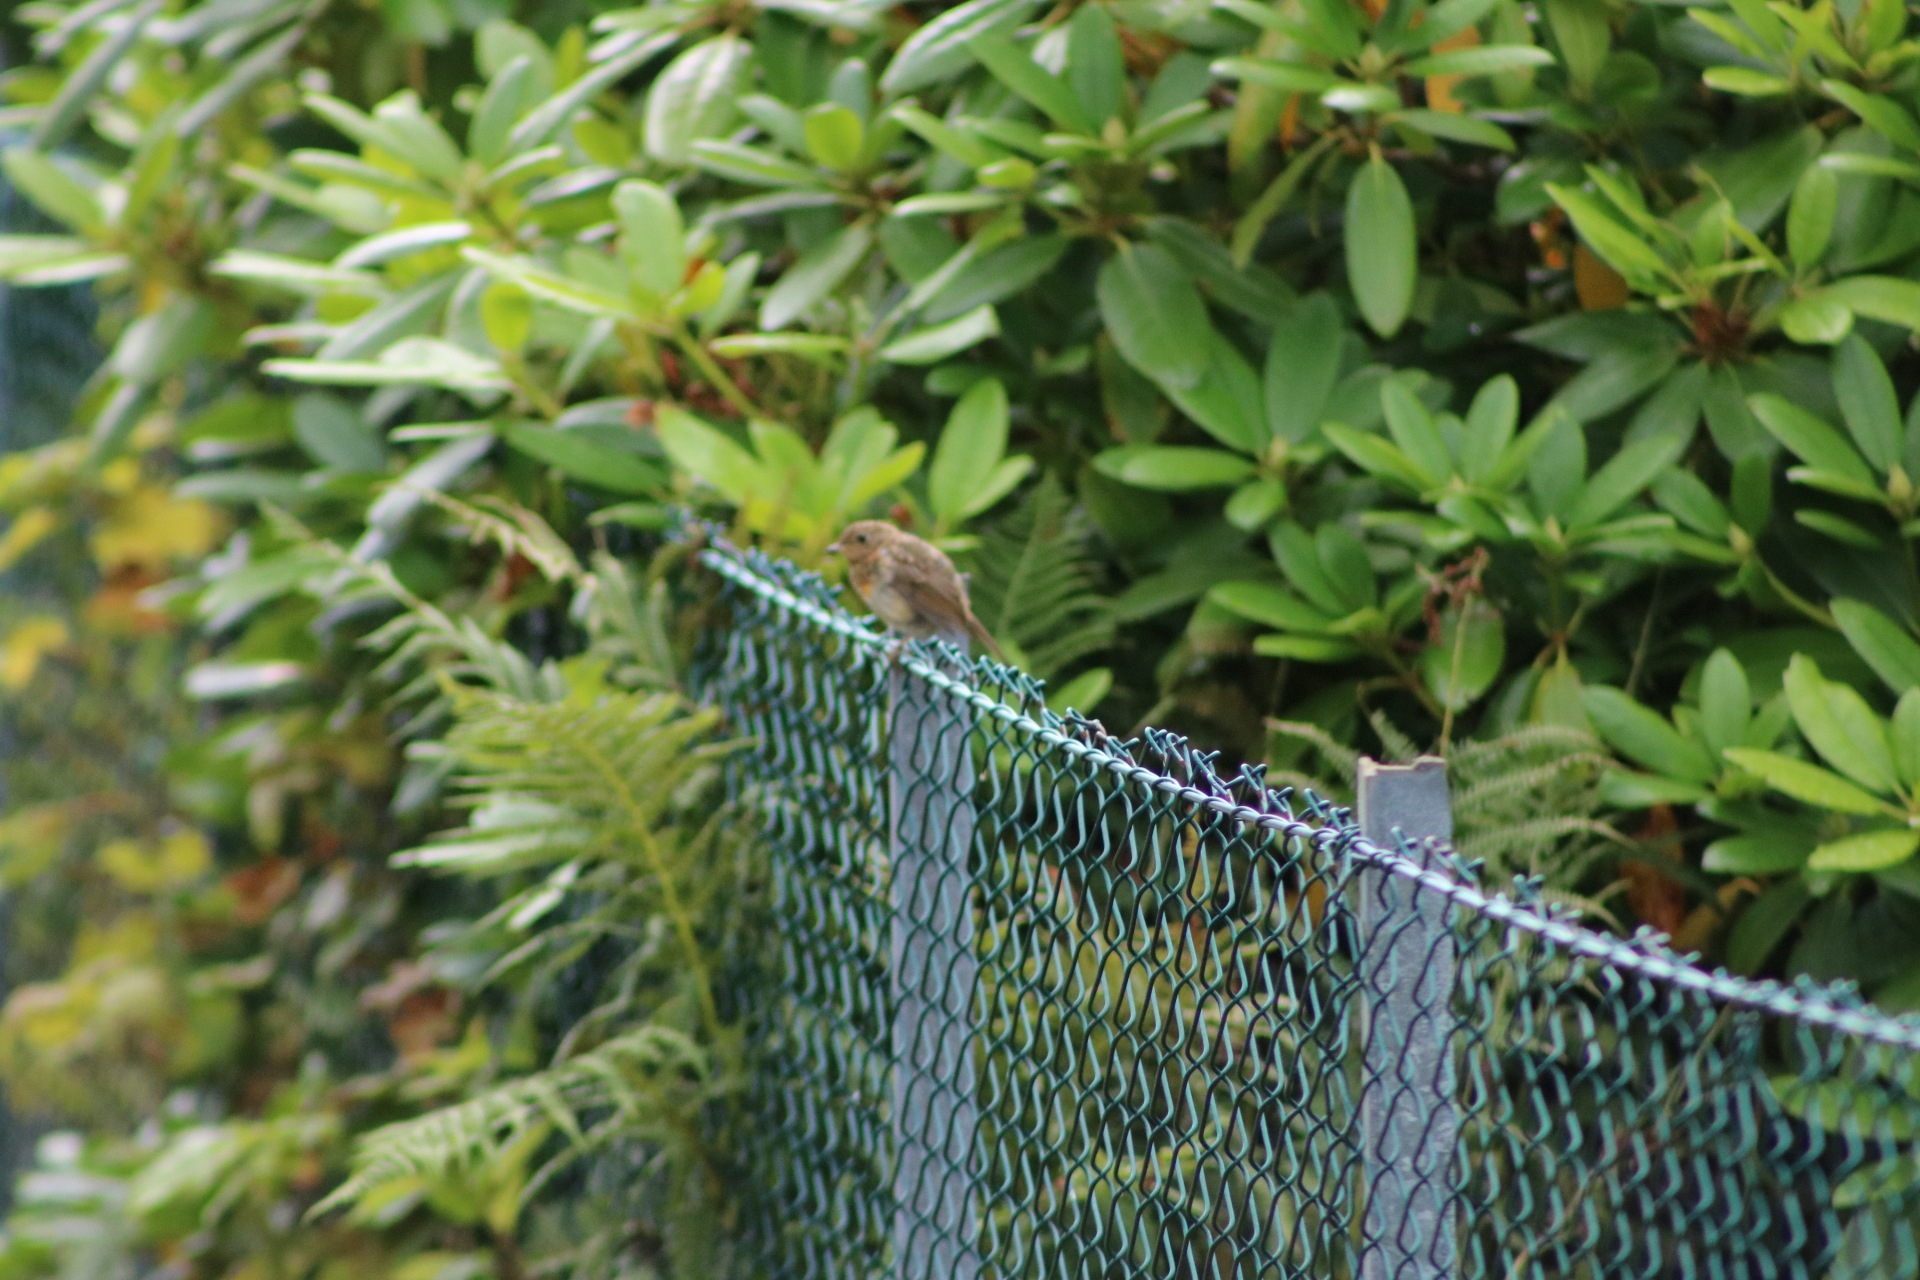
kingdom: Animalia
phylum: Chordata
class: Aves
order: Passeriformes
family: Muscicapidae
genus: Erithacus
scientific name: Erithacus rubecula
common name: European robin
